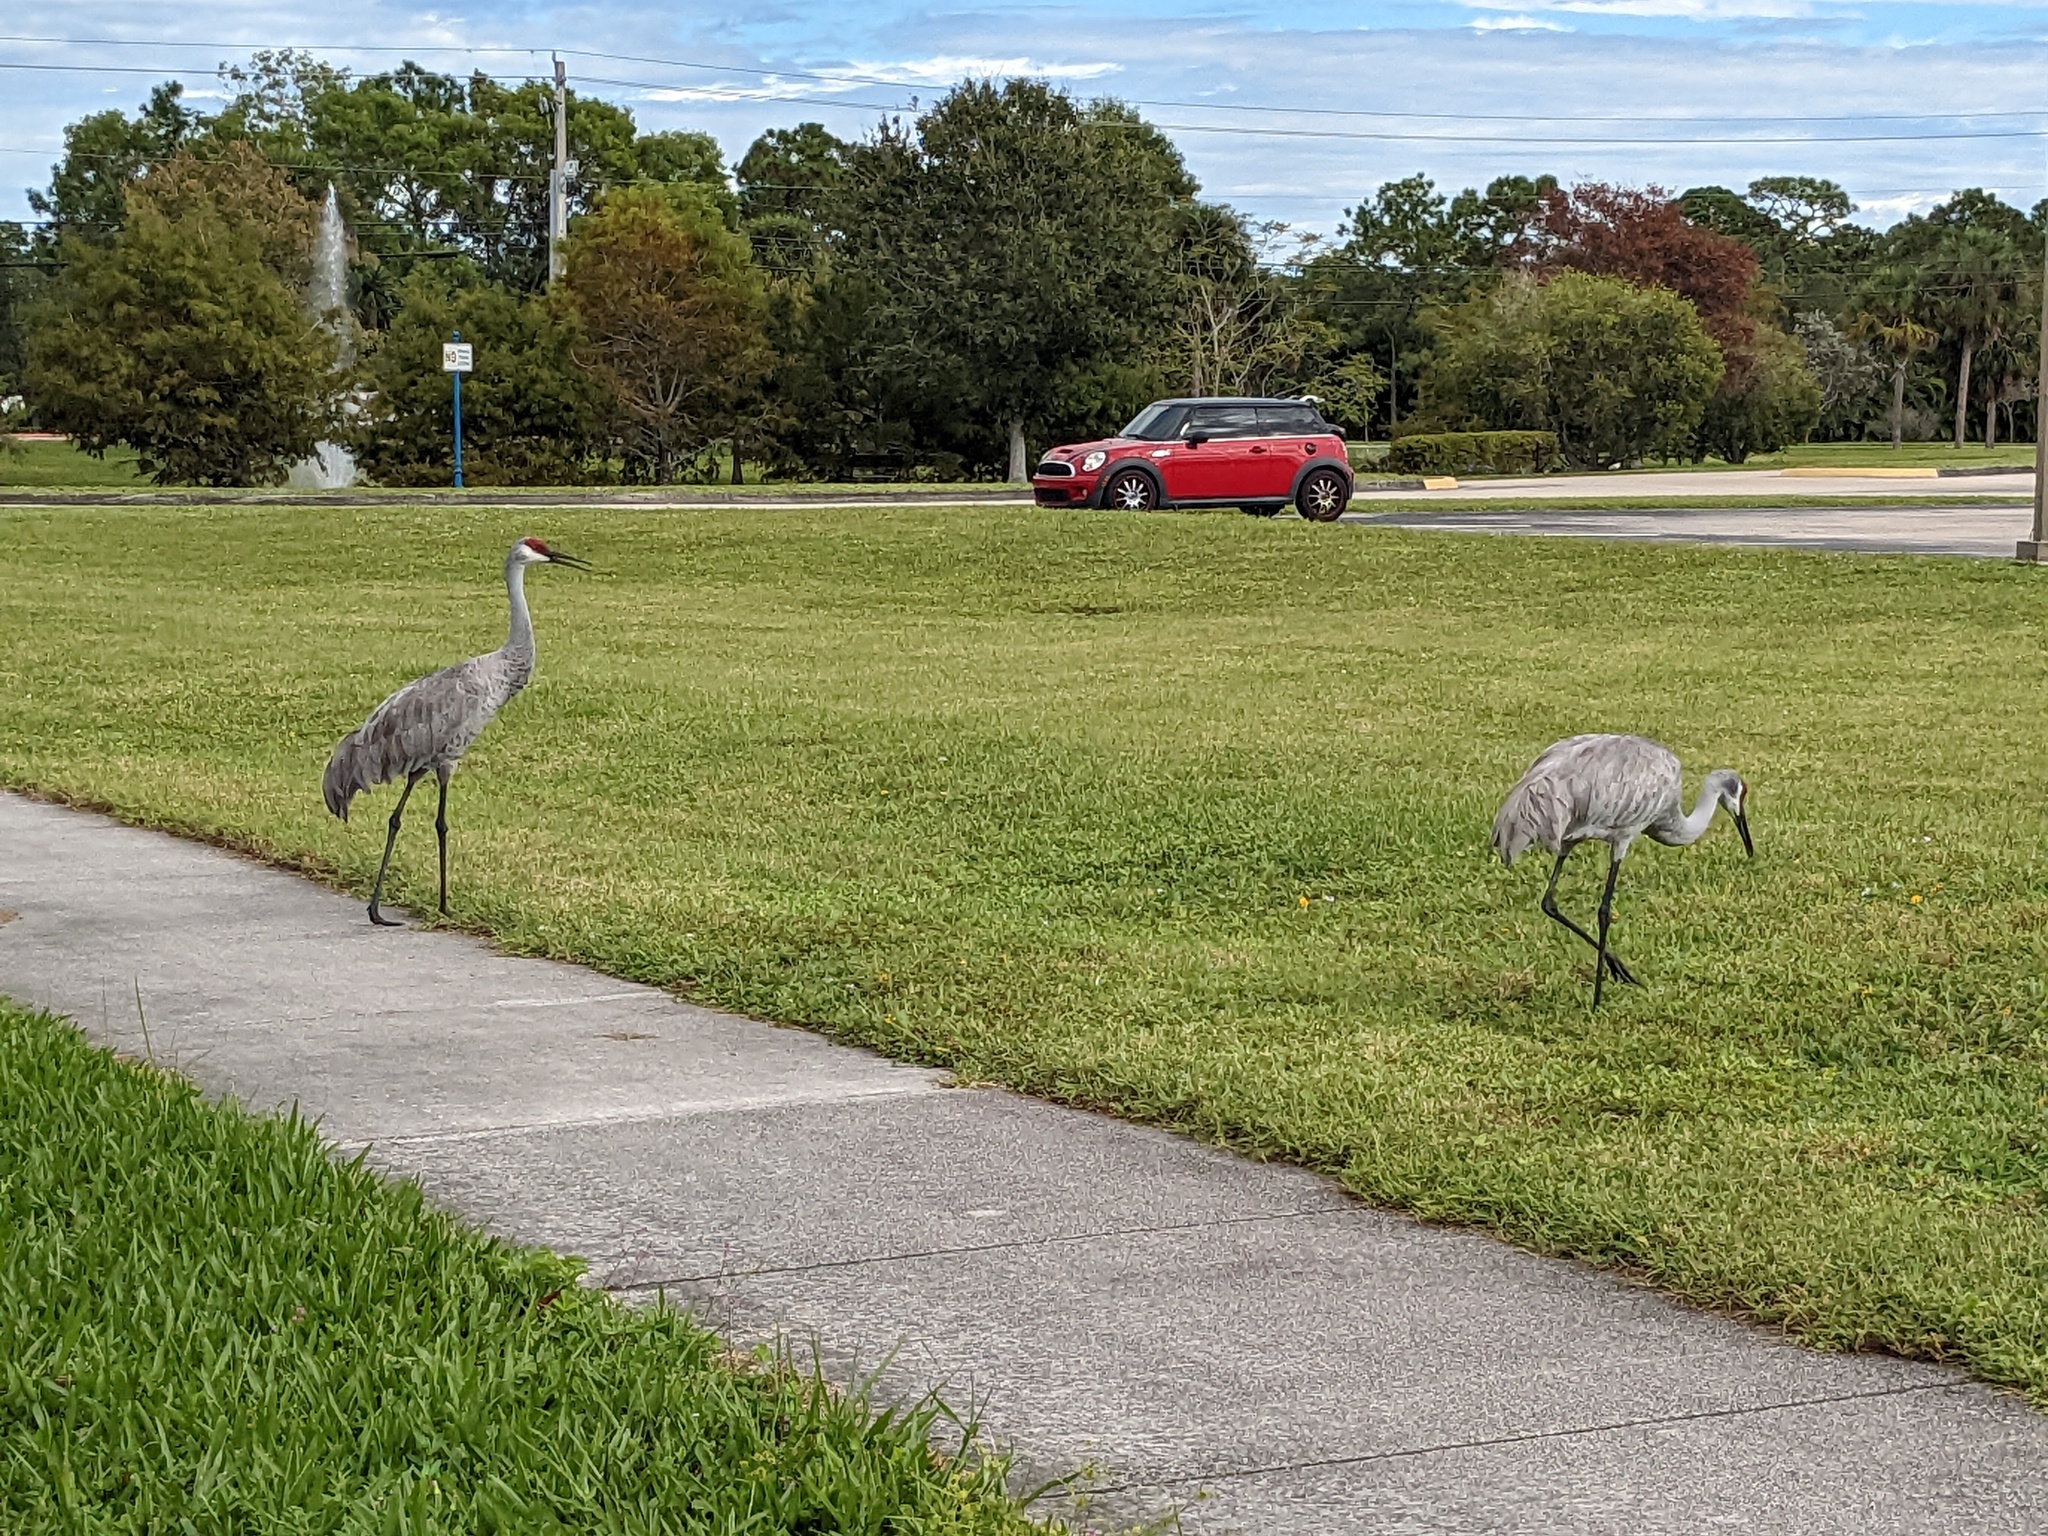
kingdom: Animalia
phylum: Chordata
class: Aves
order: Gruiformes
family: Gruidae
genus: Grus
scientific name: Grus canadensis
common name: Sandhill crane
